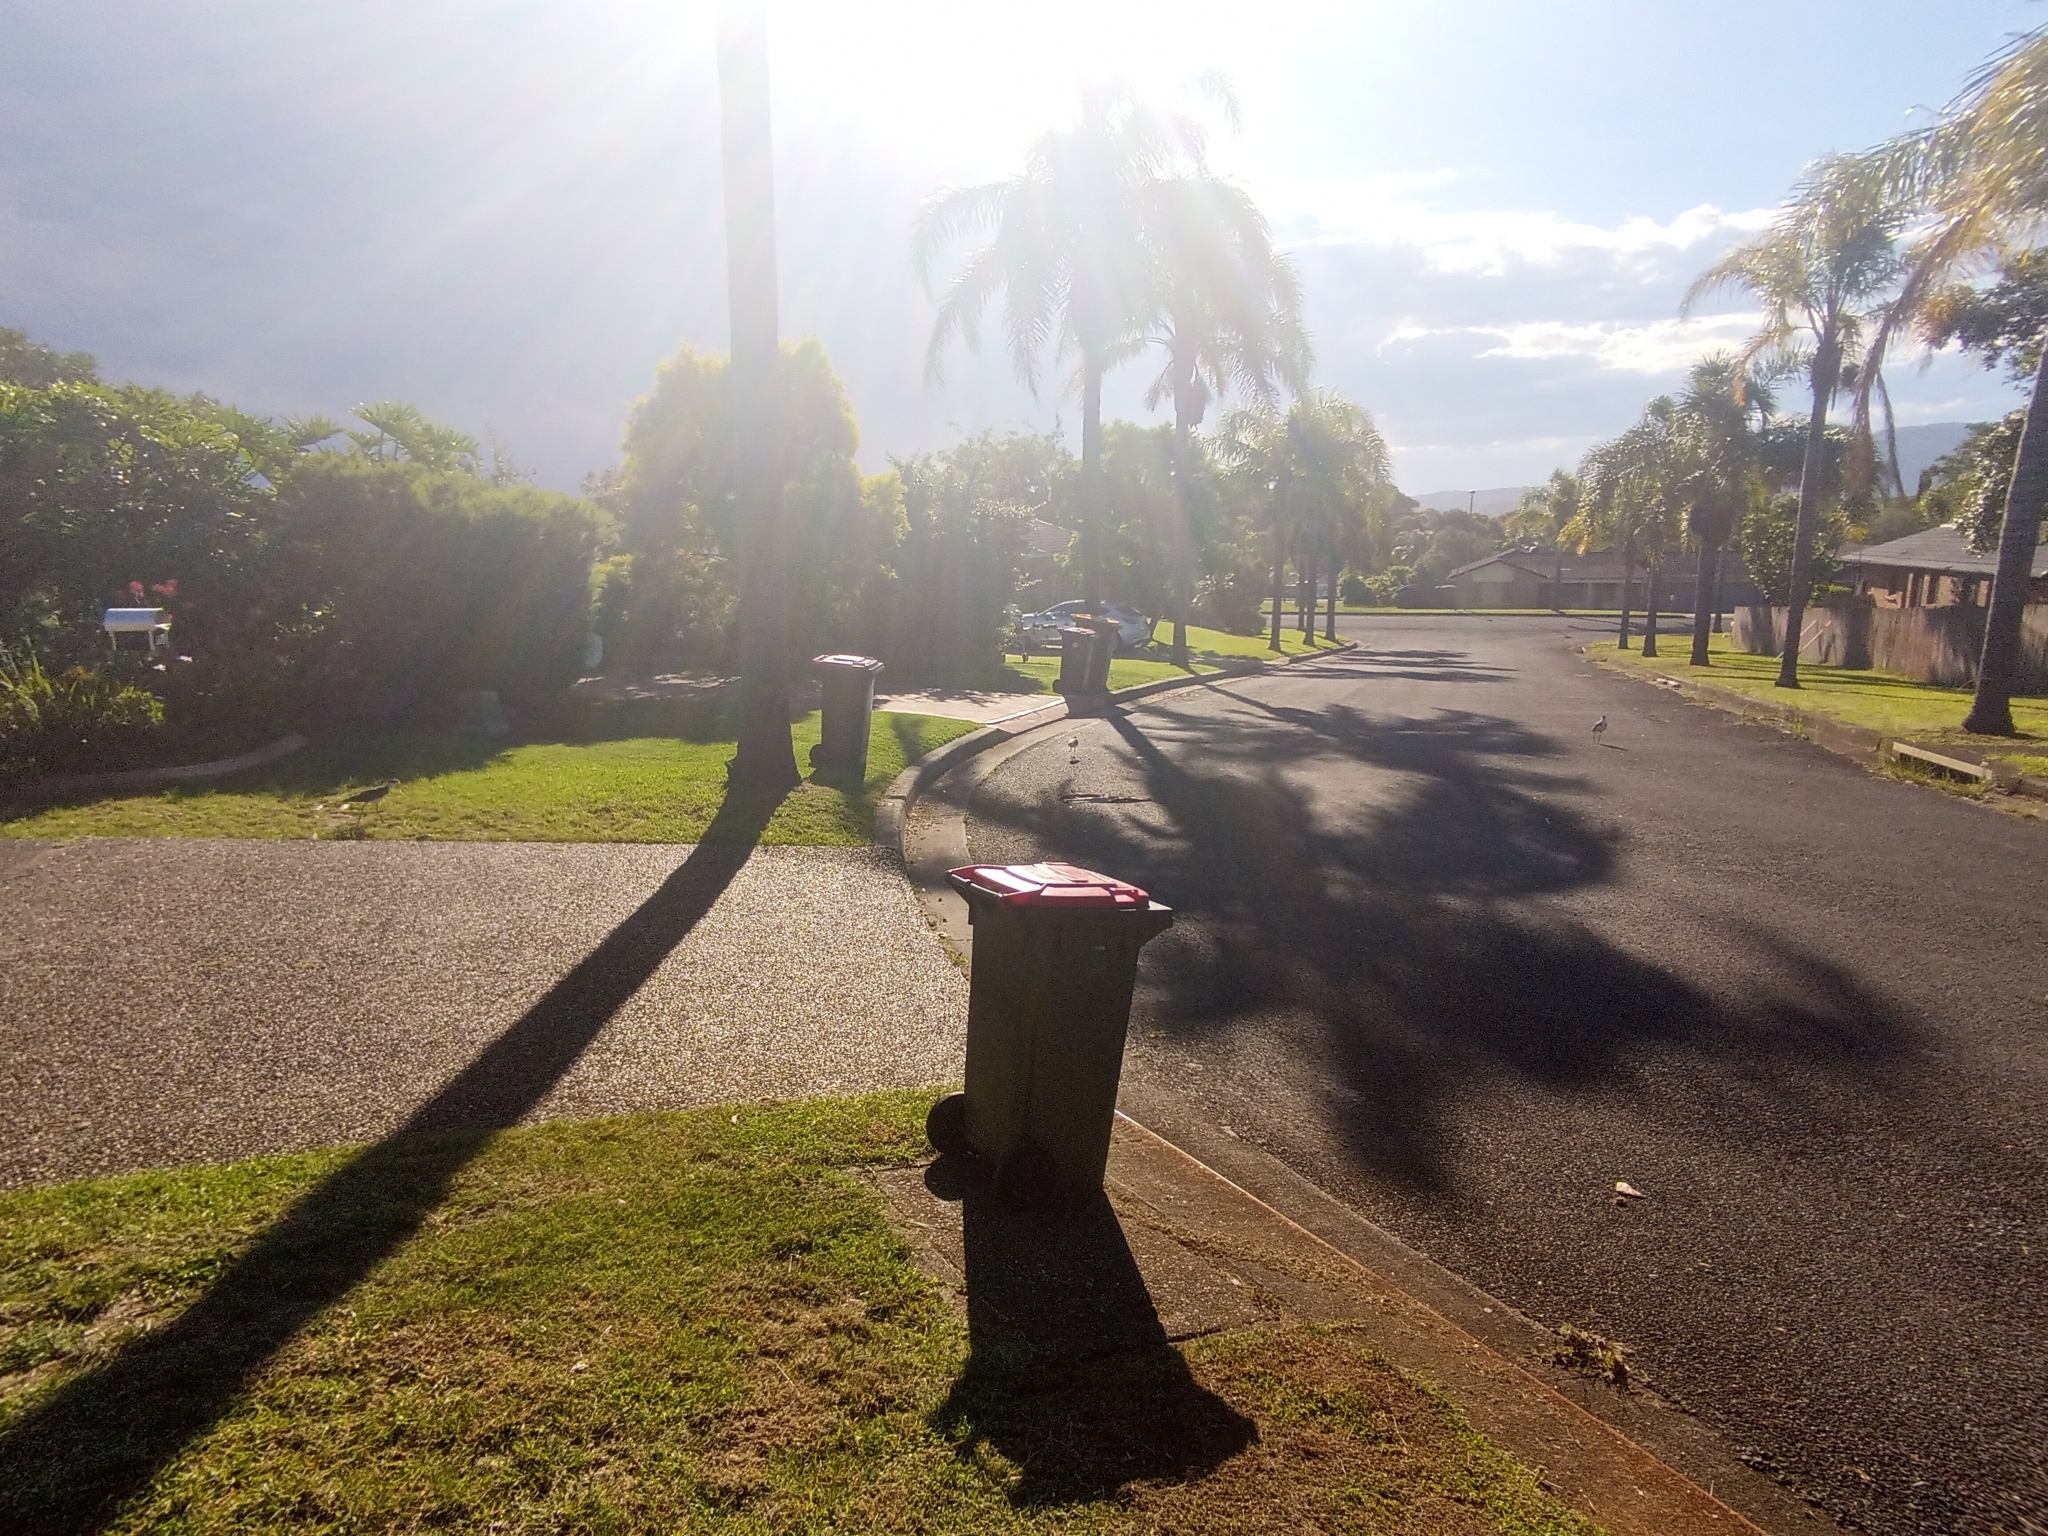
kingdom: Animalia
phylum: Chordata
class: Aves
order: Charadriiformes
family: Charadriidae
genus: Vanellus
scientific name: Vanellus miles
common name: Masked lapwing
